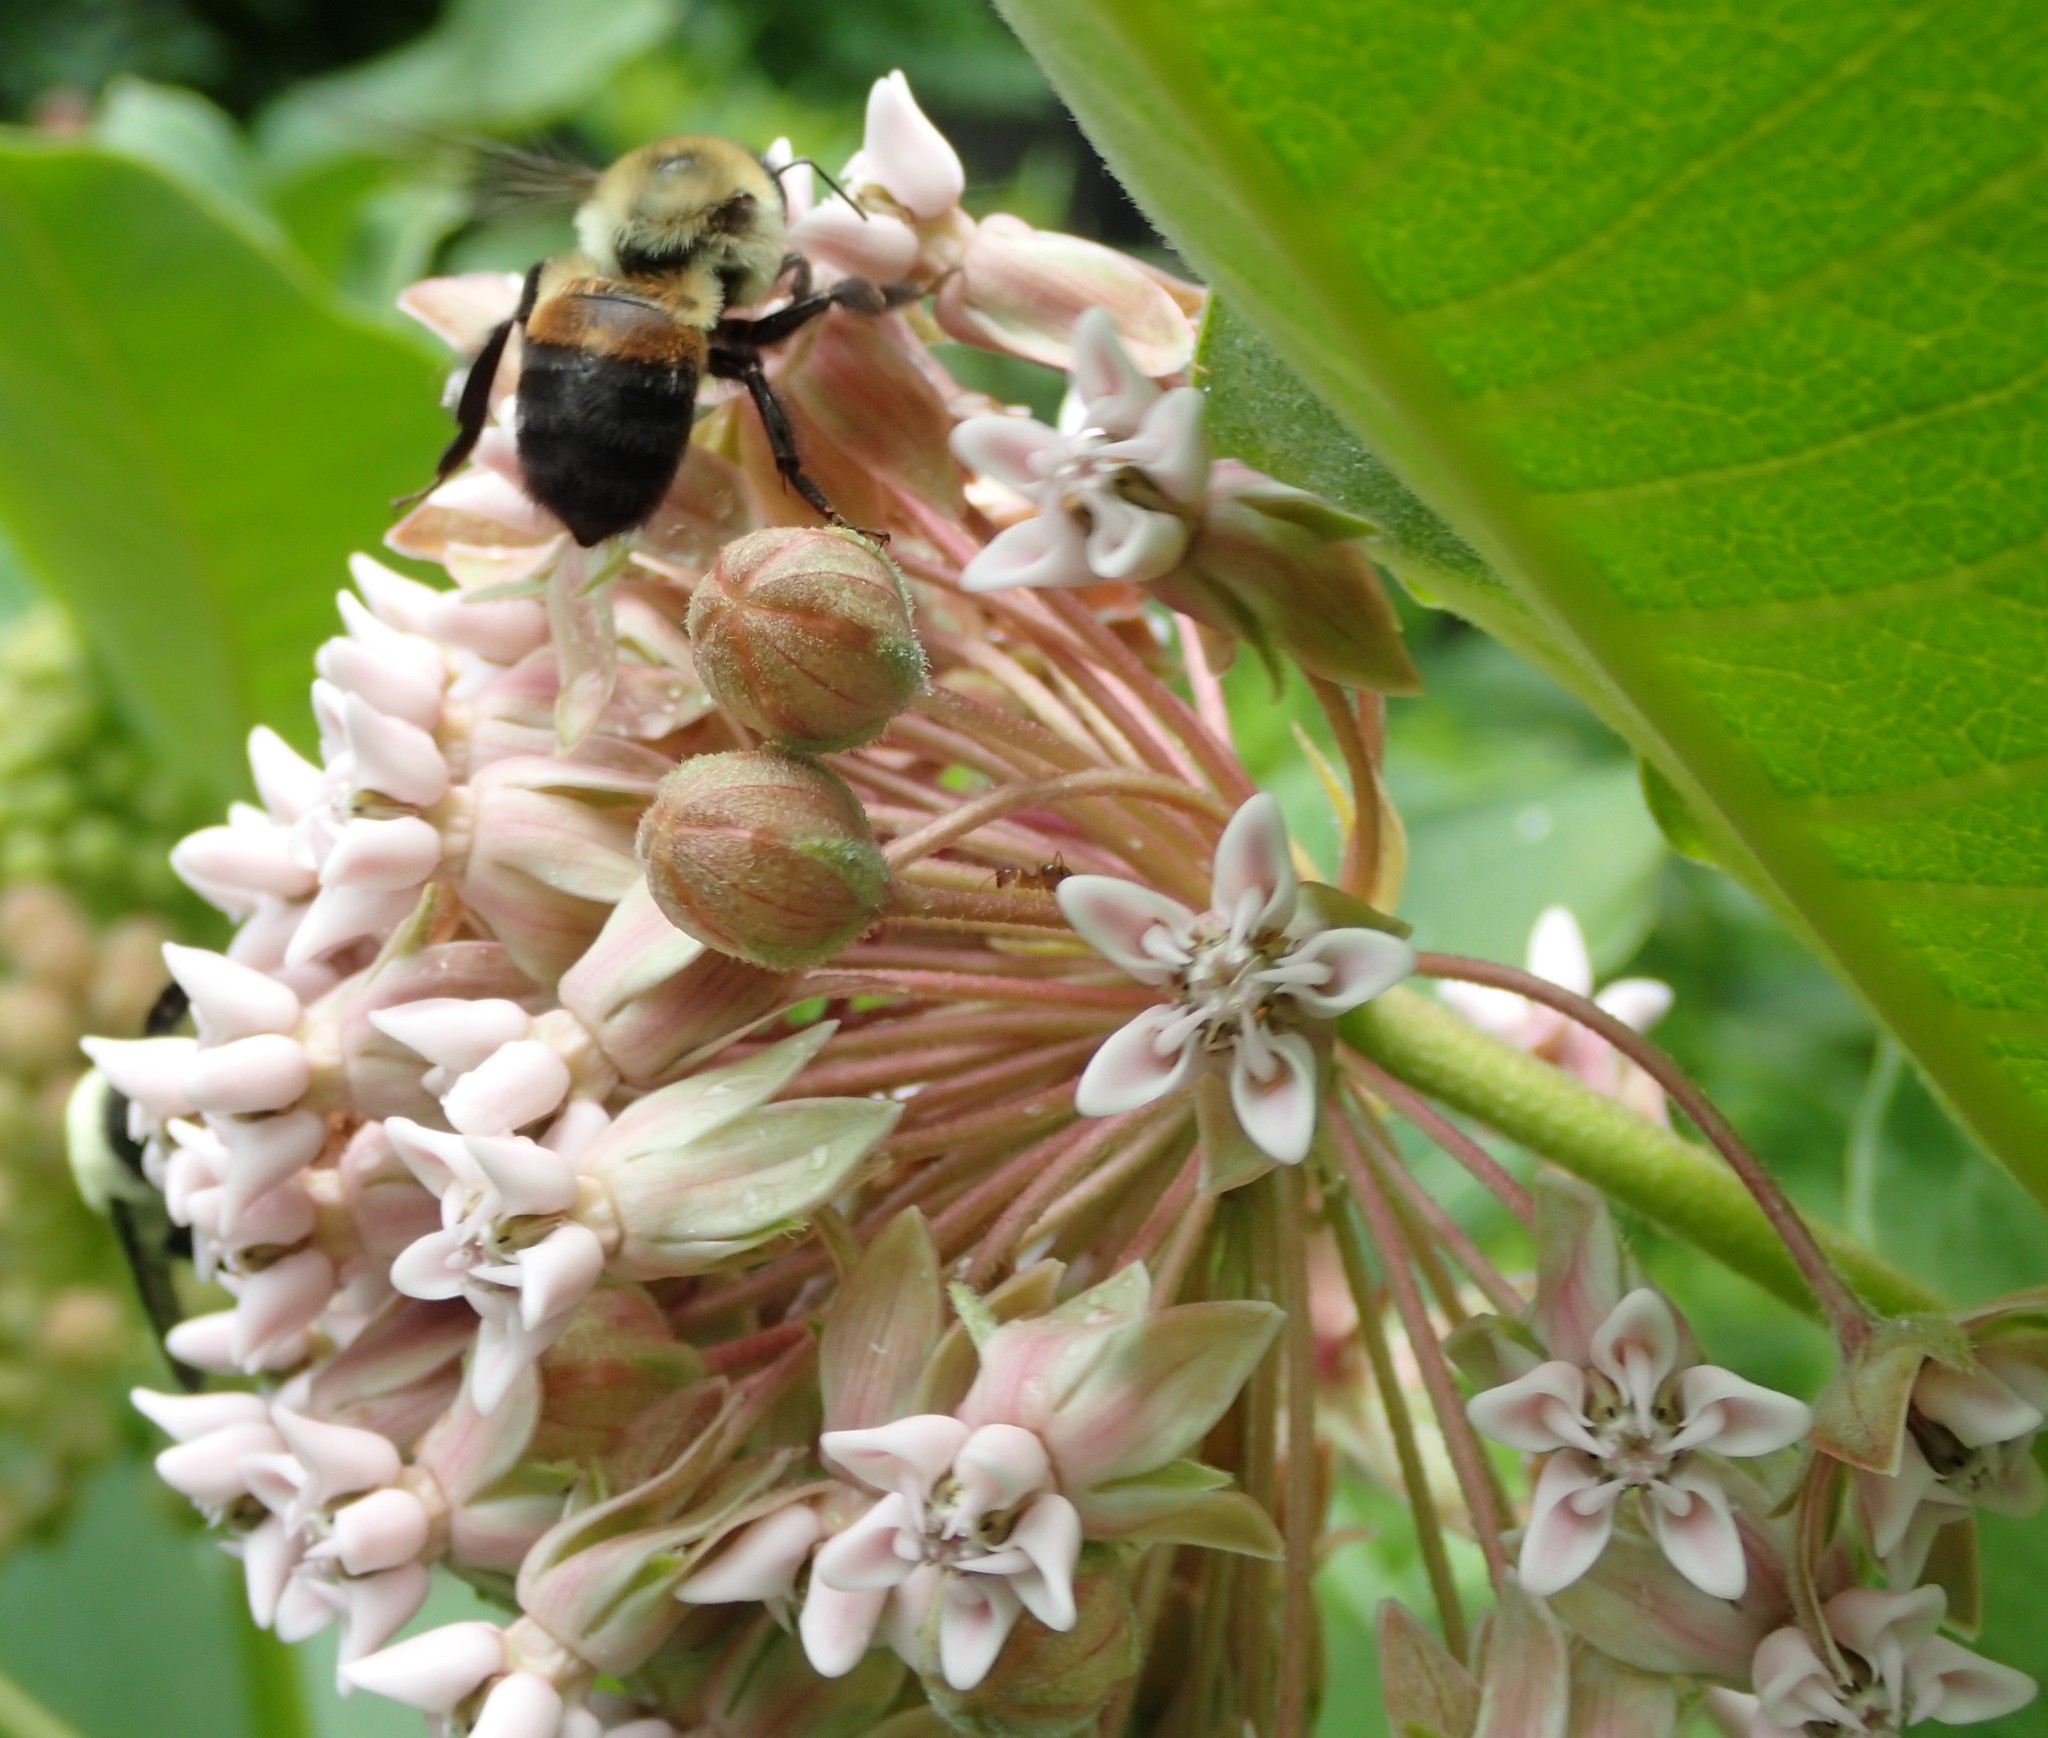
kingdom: Animalia
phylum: Arthropoda
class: Insecta
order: Hymenoptera
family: Apidae
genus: Bombus
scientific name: Bombus griseocollis
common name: Brown-belted bumble bee
